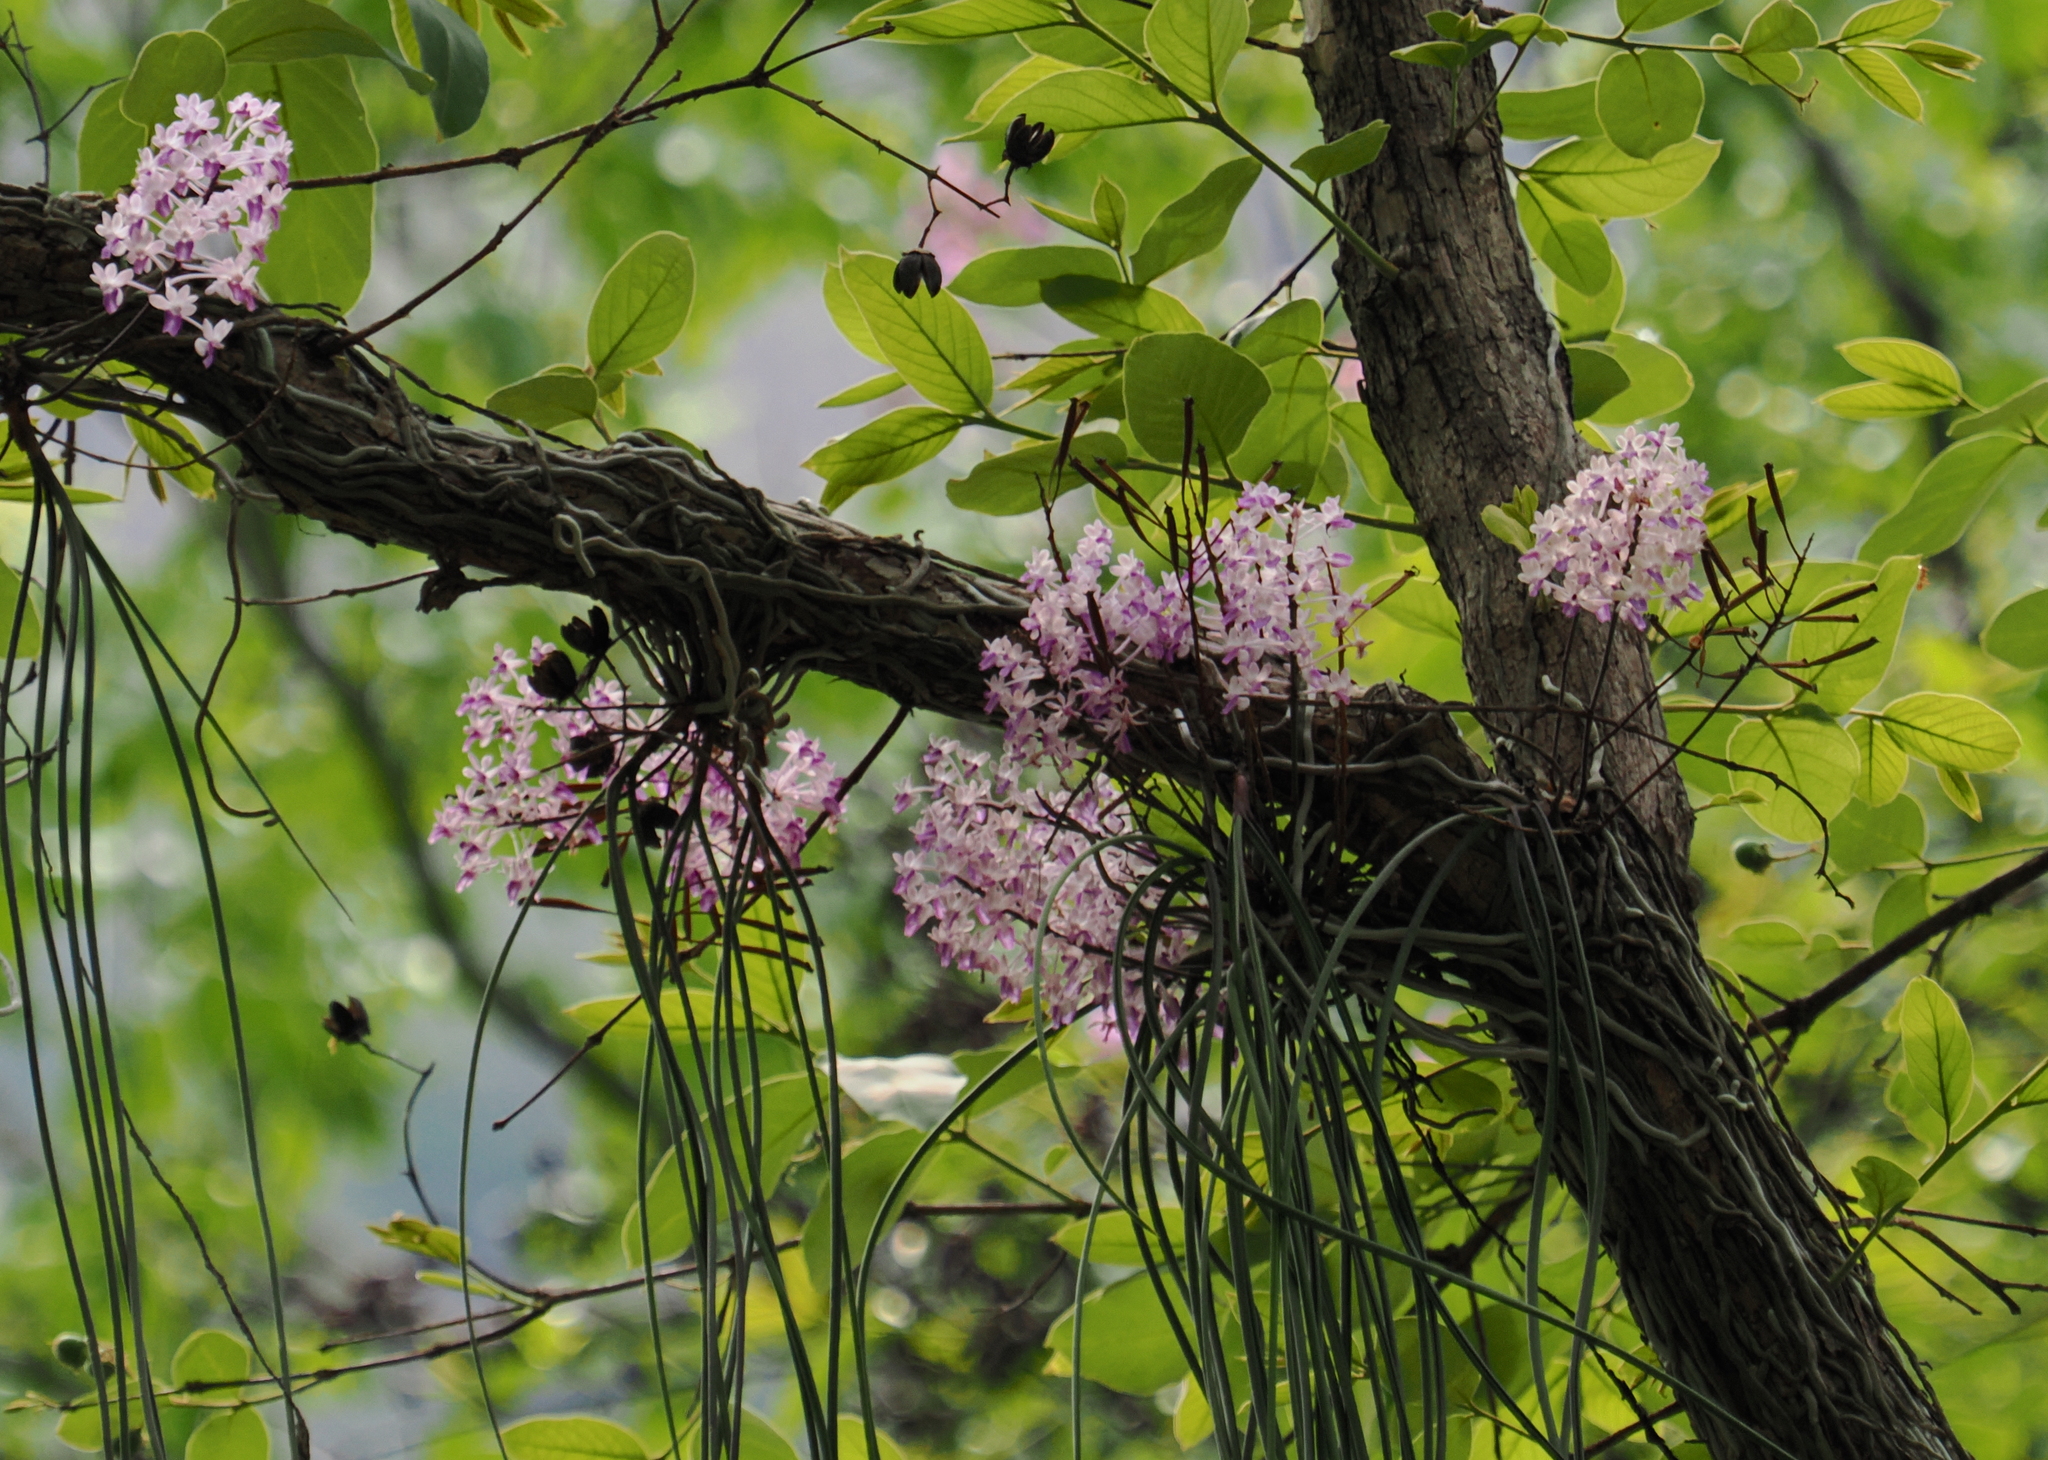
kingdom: Plantae
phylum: Tracheophyta
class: Liliopsida
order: Asparagales
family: Orchidaceae
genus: Seidenfadenia
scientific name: Seidenfadenia mitrata
